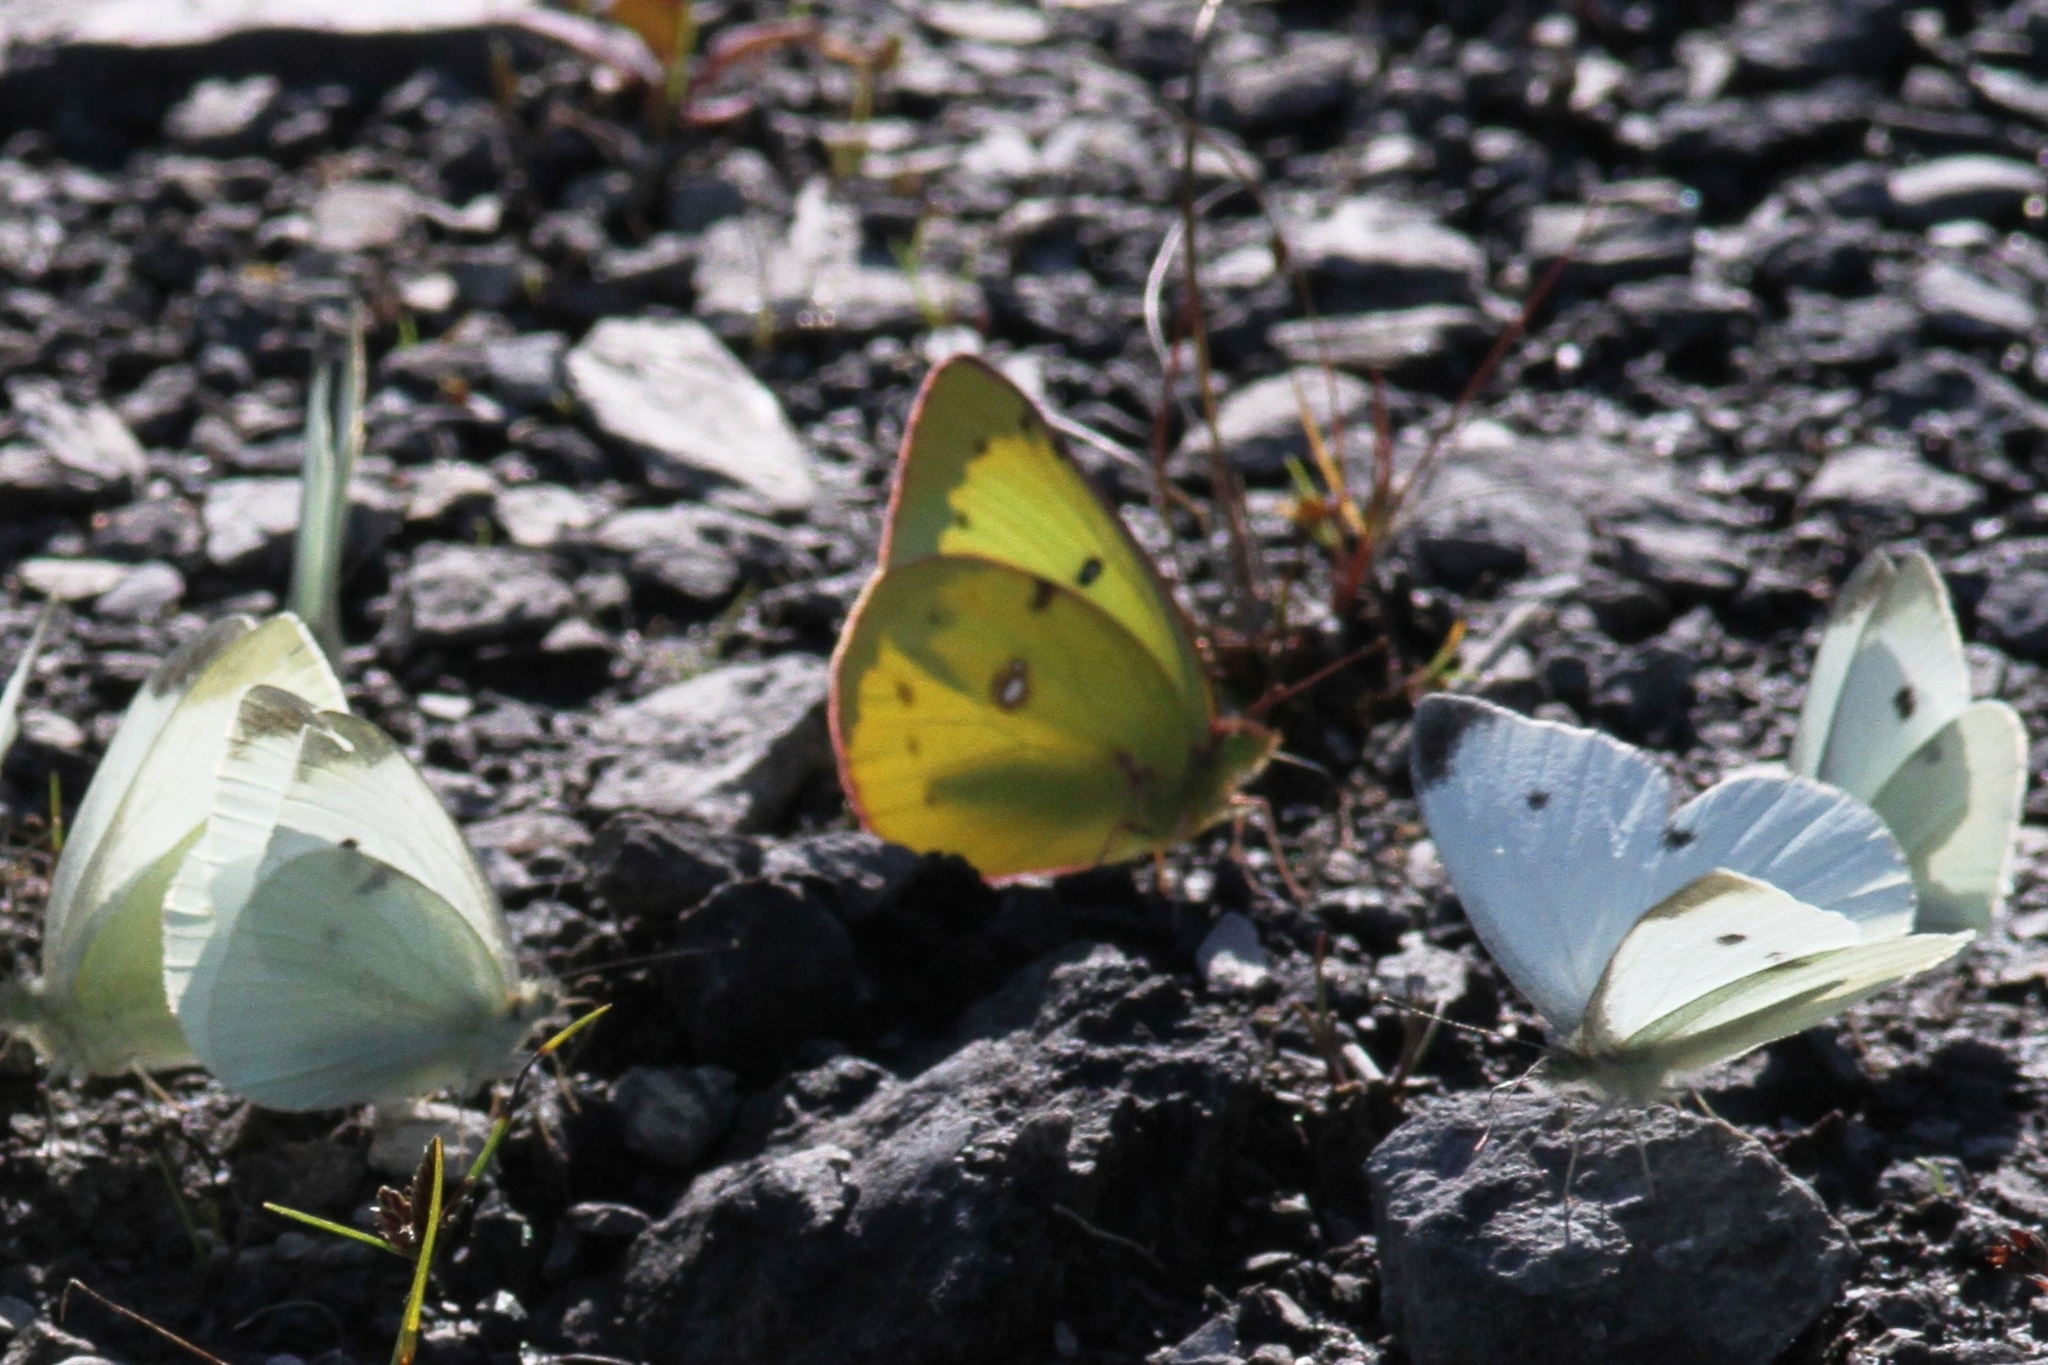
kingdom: Animalia
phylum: Arthropoda
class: Insecta
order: Lepidoptera
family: Pieridae
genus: Colias
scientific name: Colias philodice
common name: Clouded sulphur
